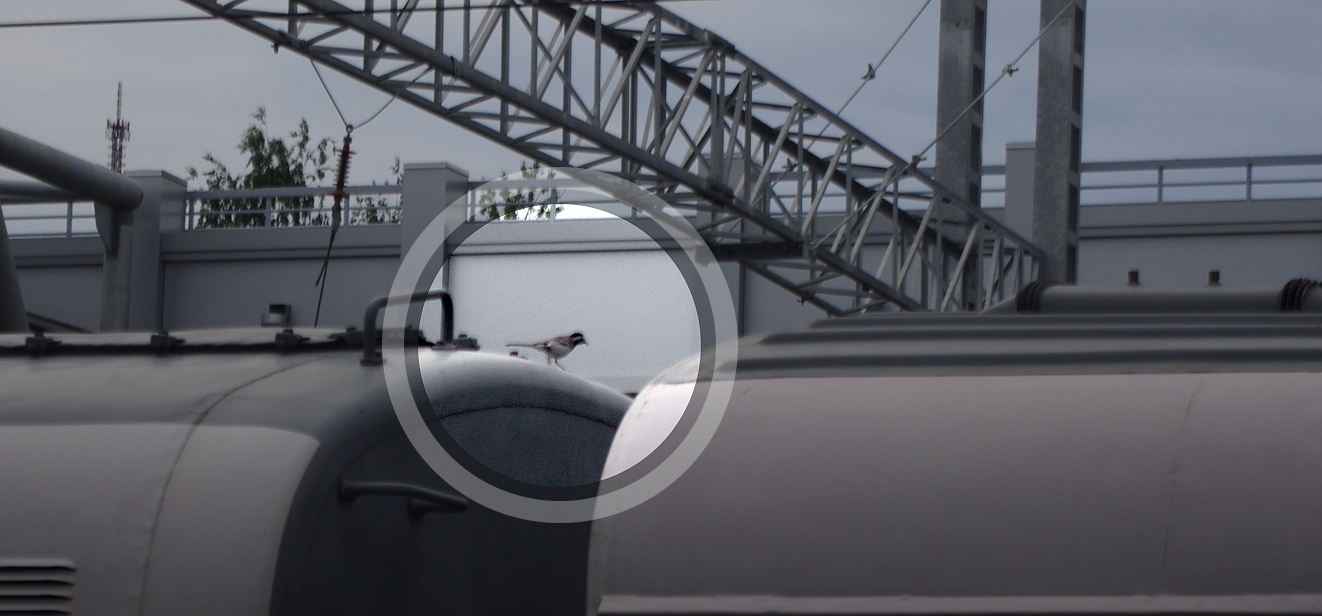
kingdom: Animalia
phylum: Chordata
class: Aves
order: Passeriformes
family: Motacillidae
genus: Motacilla
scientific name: Motacilla alba
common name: White wagtail
